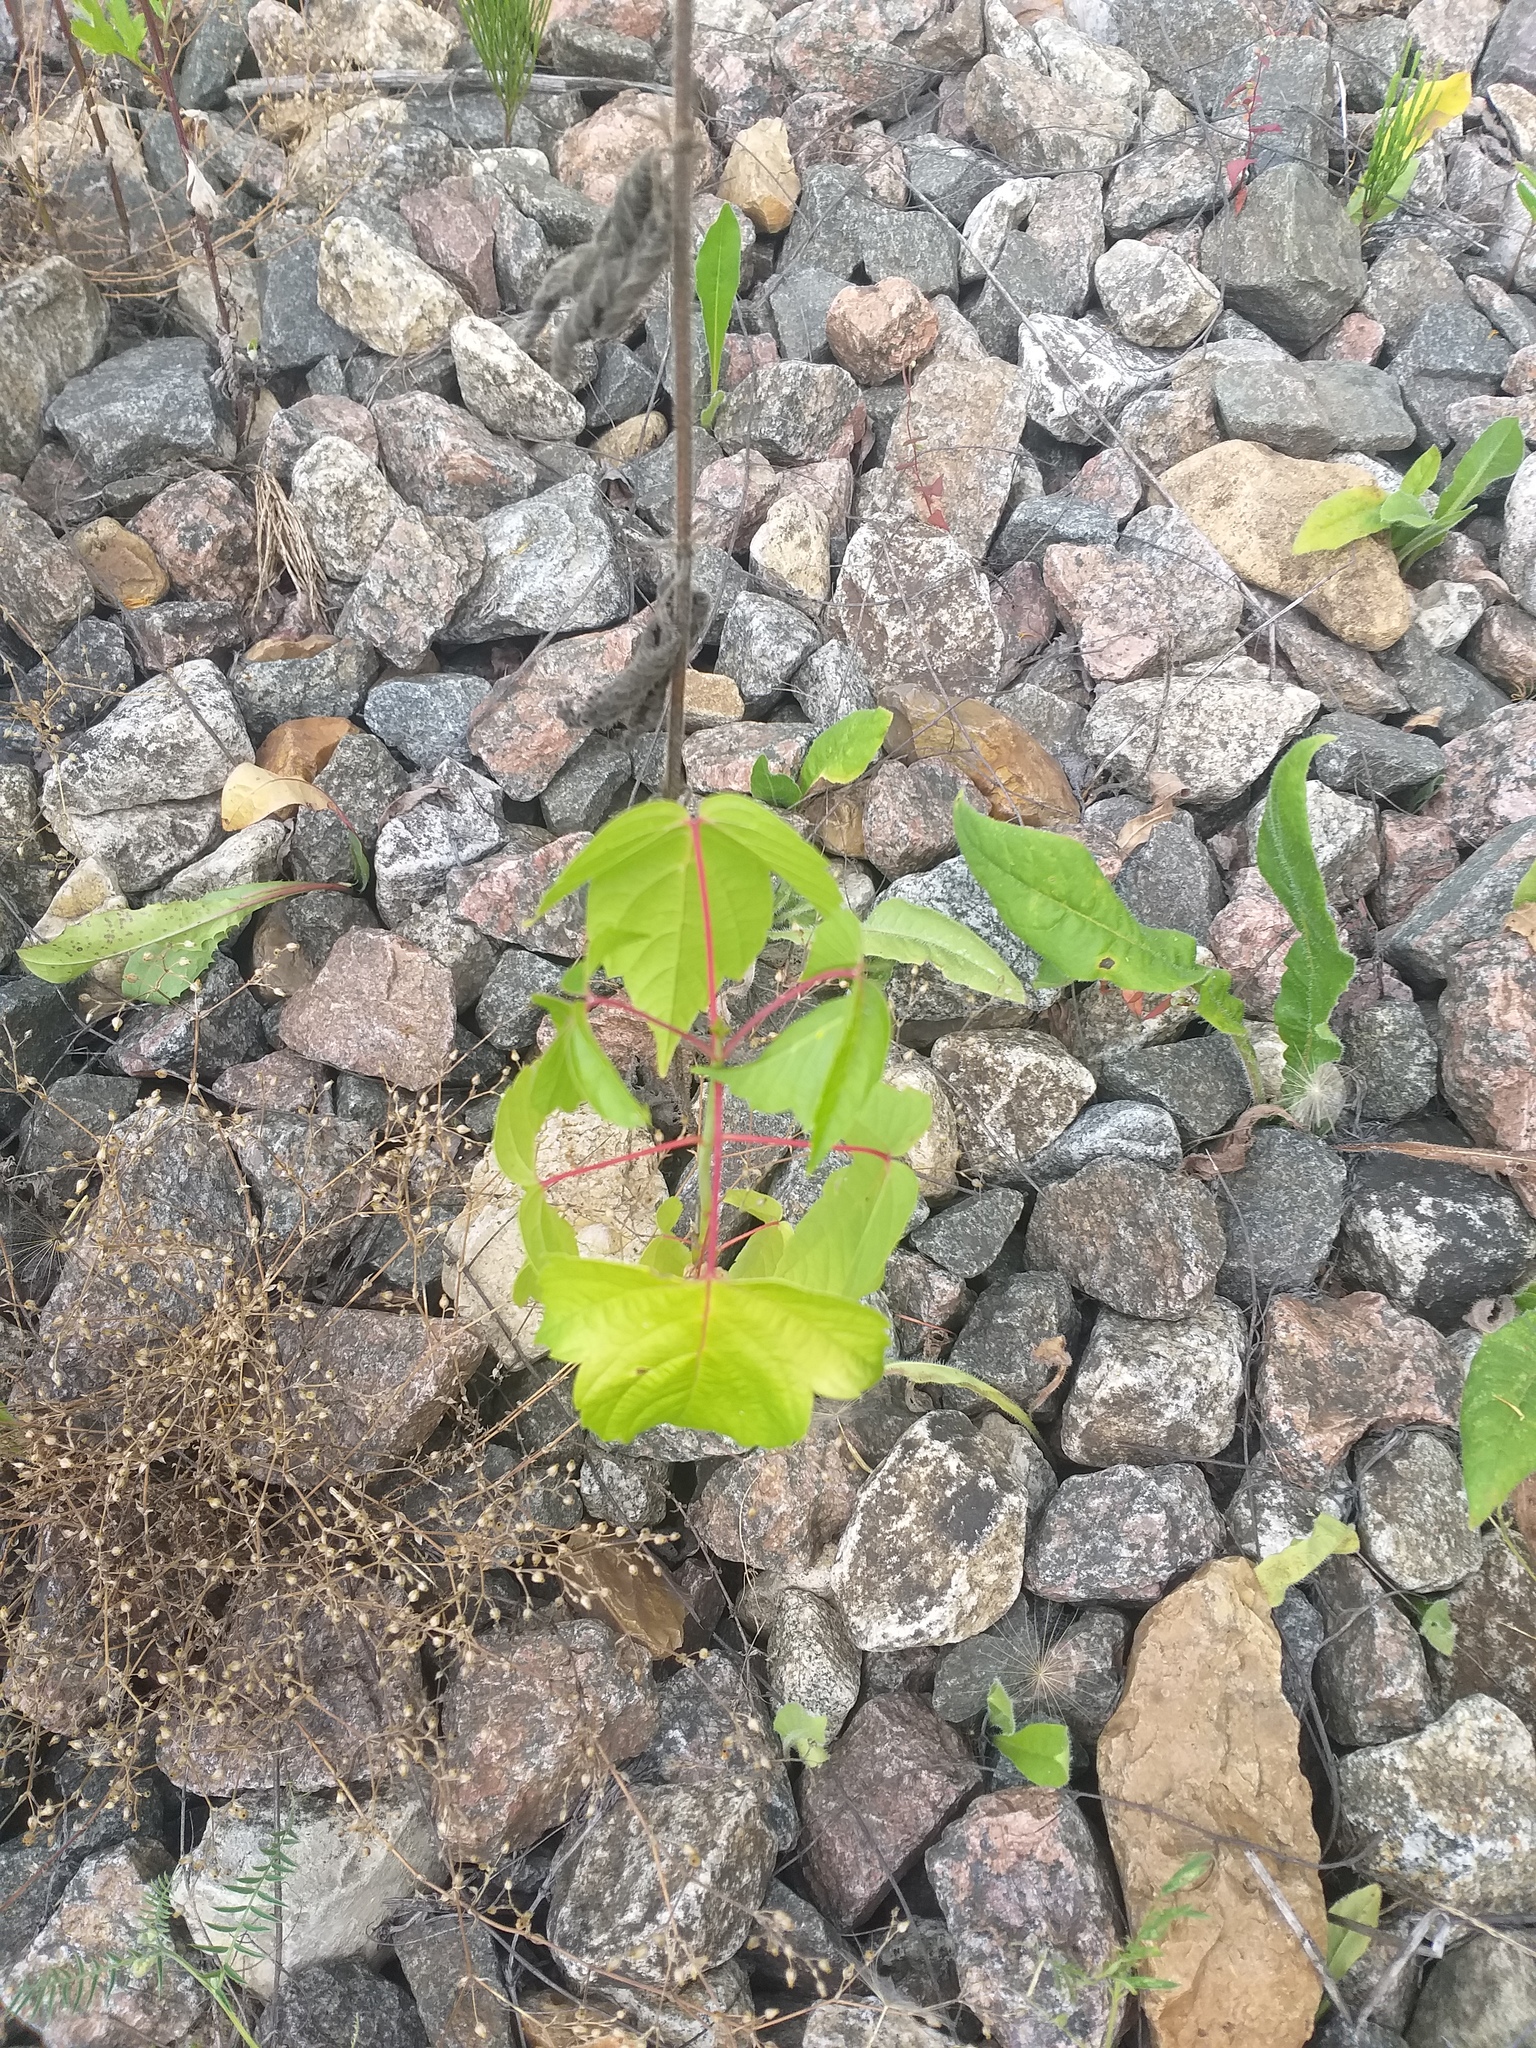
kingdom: Plantae
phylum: Tracheophyta
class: Magnoliopsida
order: Sapindales
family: Sapindaceae
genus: Acer
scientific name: Acer negundo
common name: Ashleaf maple
